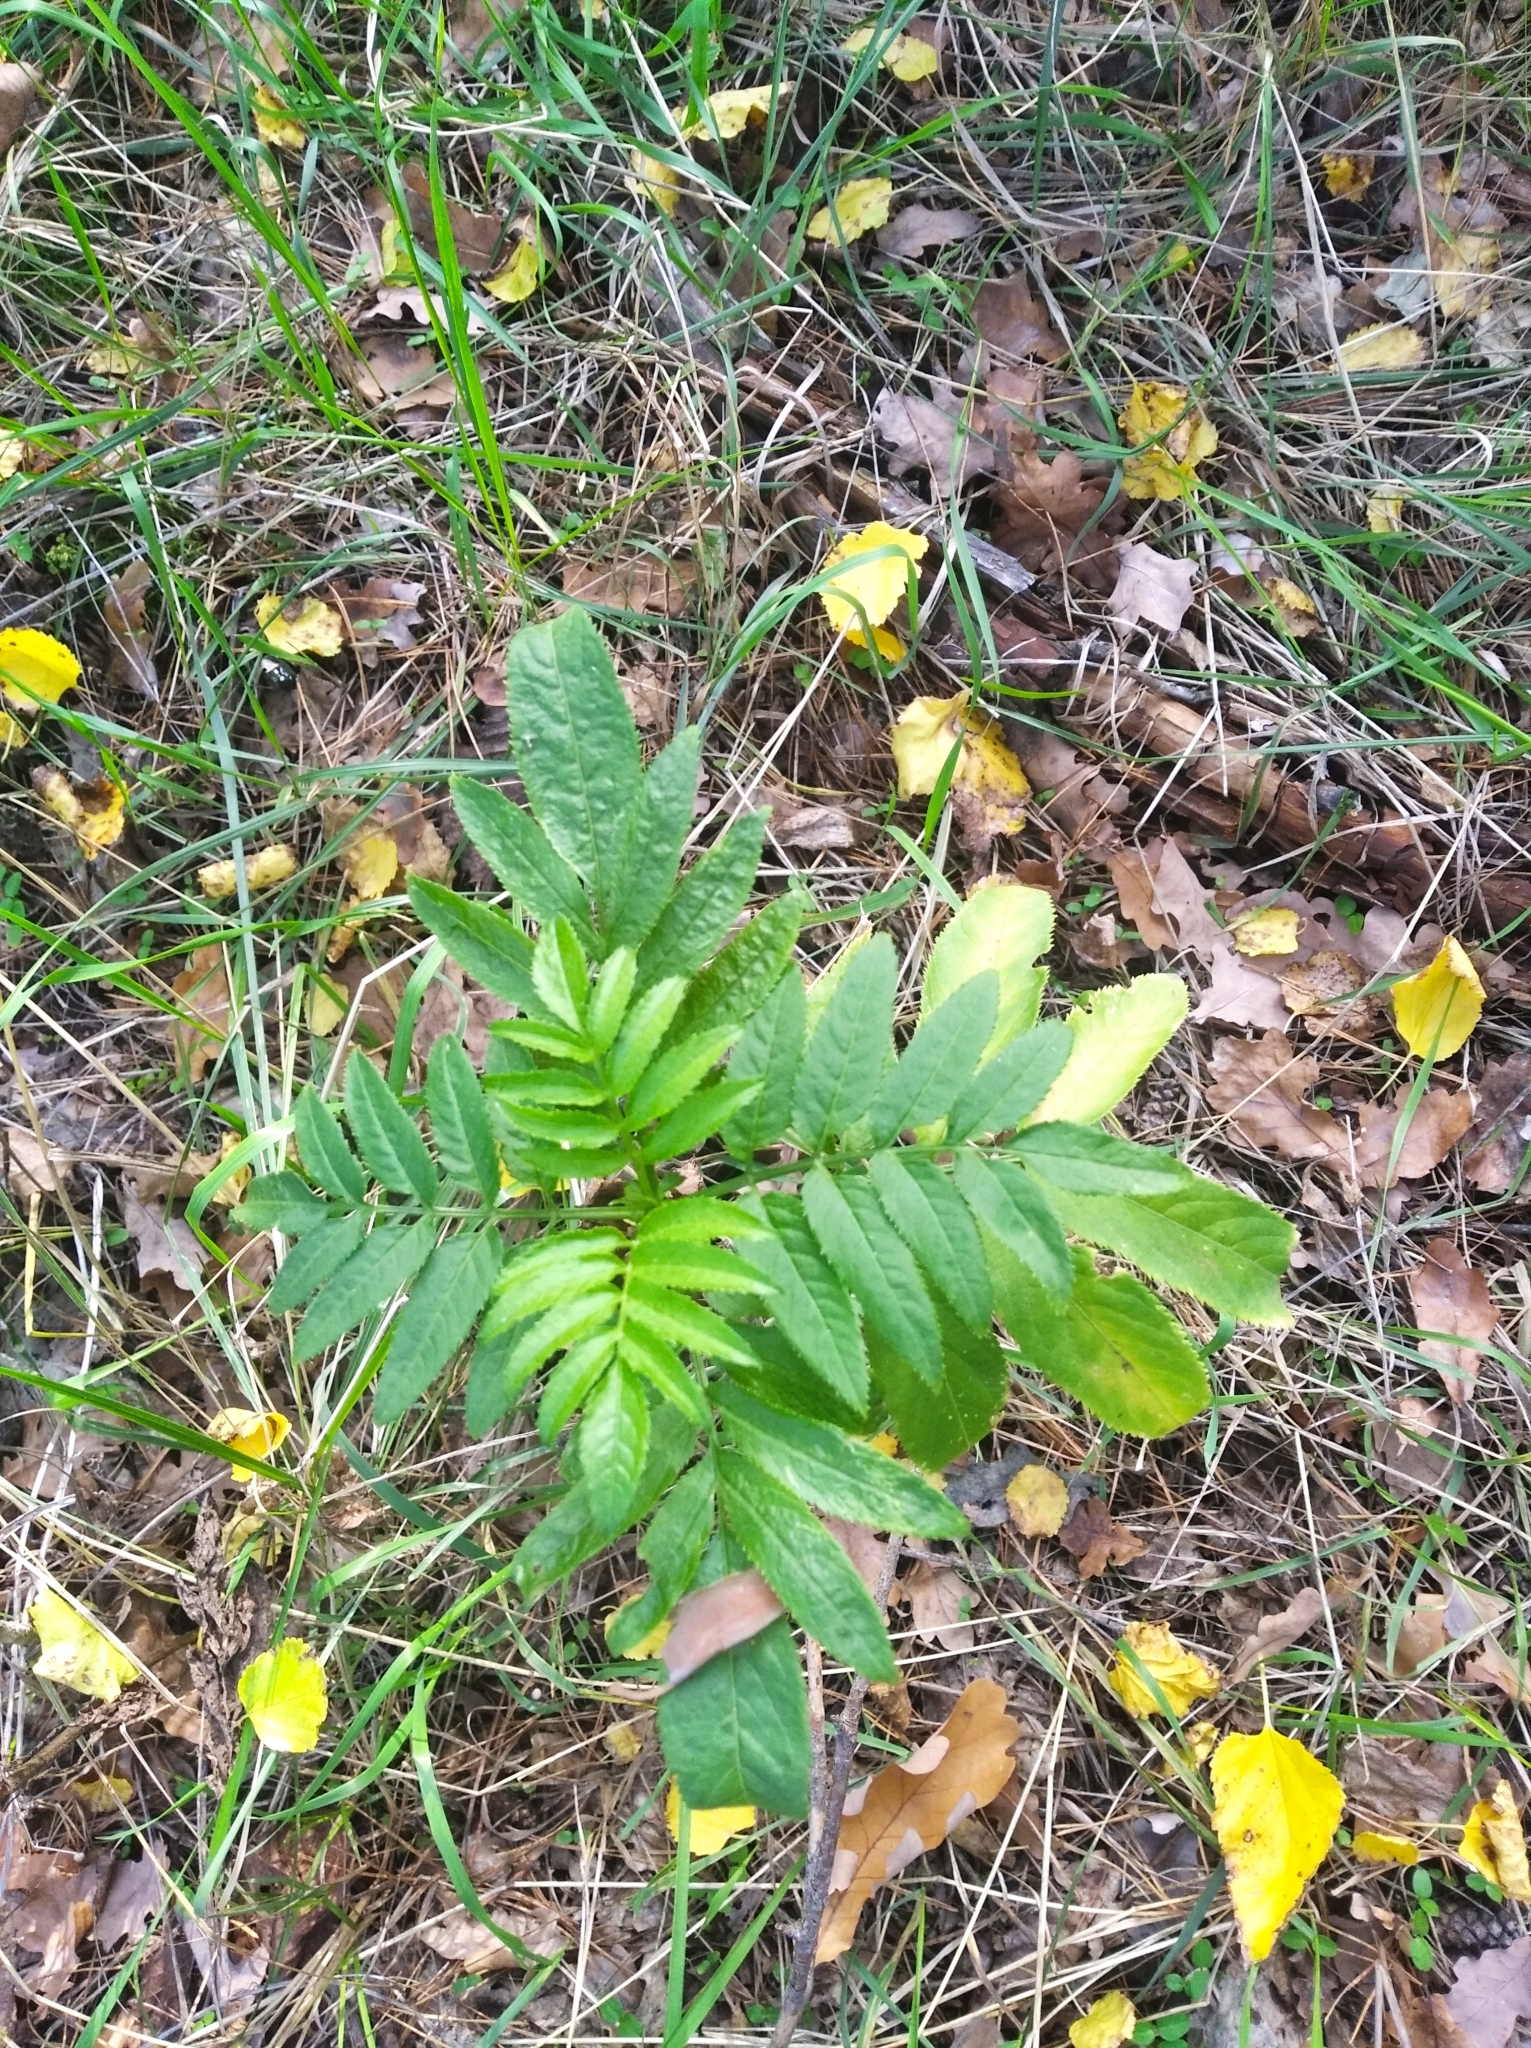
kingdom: Plantae
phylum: Tracheophyta
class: Magnoliopsida
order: Dipsacales
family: Viburnaceae
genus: Sambucus
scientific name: Sambucus ebulus
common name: Dwarf elder
